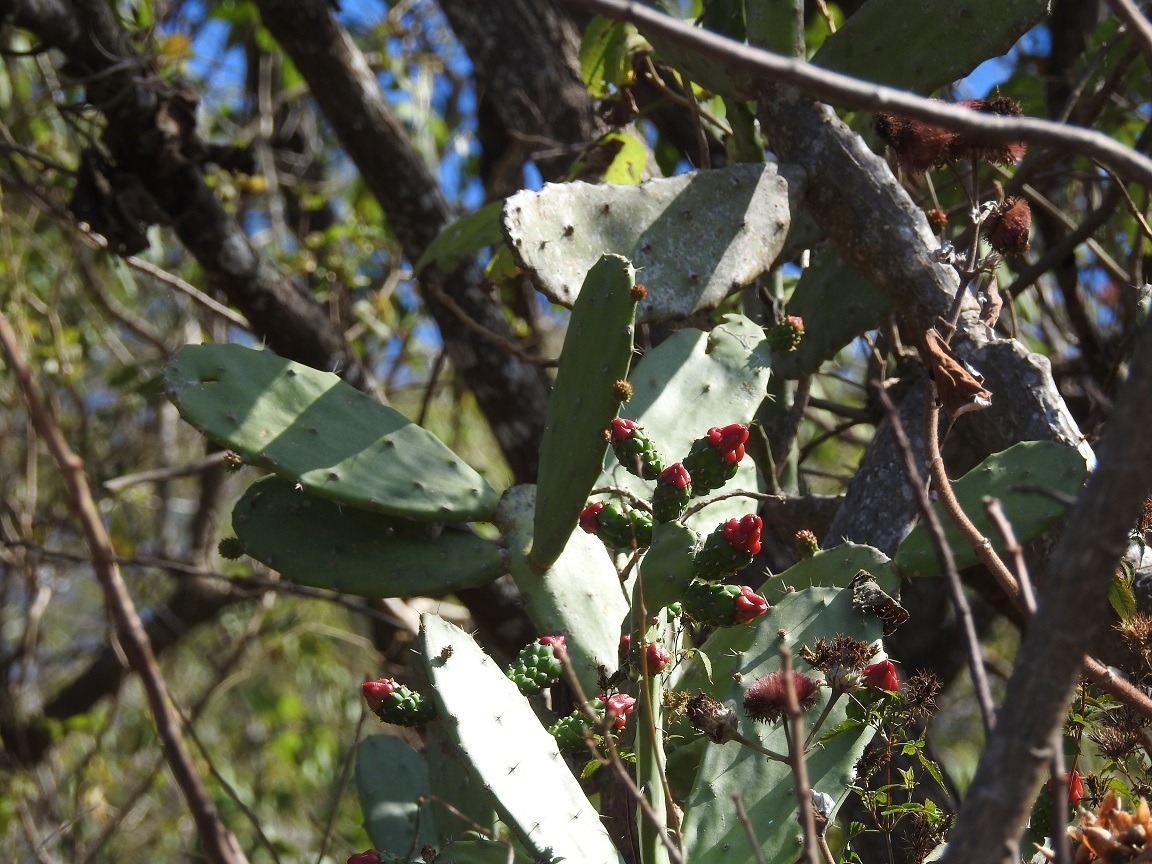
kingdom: Plantae
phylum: Tracheophyta
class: Magnoliopsida
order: Caryophyllales
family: Cactaceae
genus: Opuntia
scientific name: Opuntia dejecta
